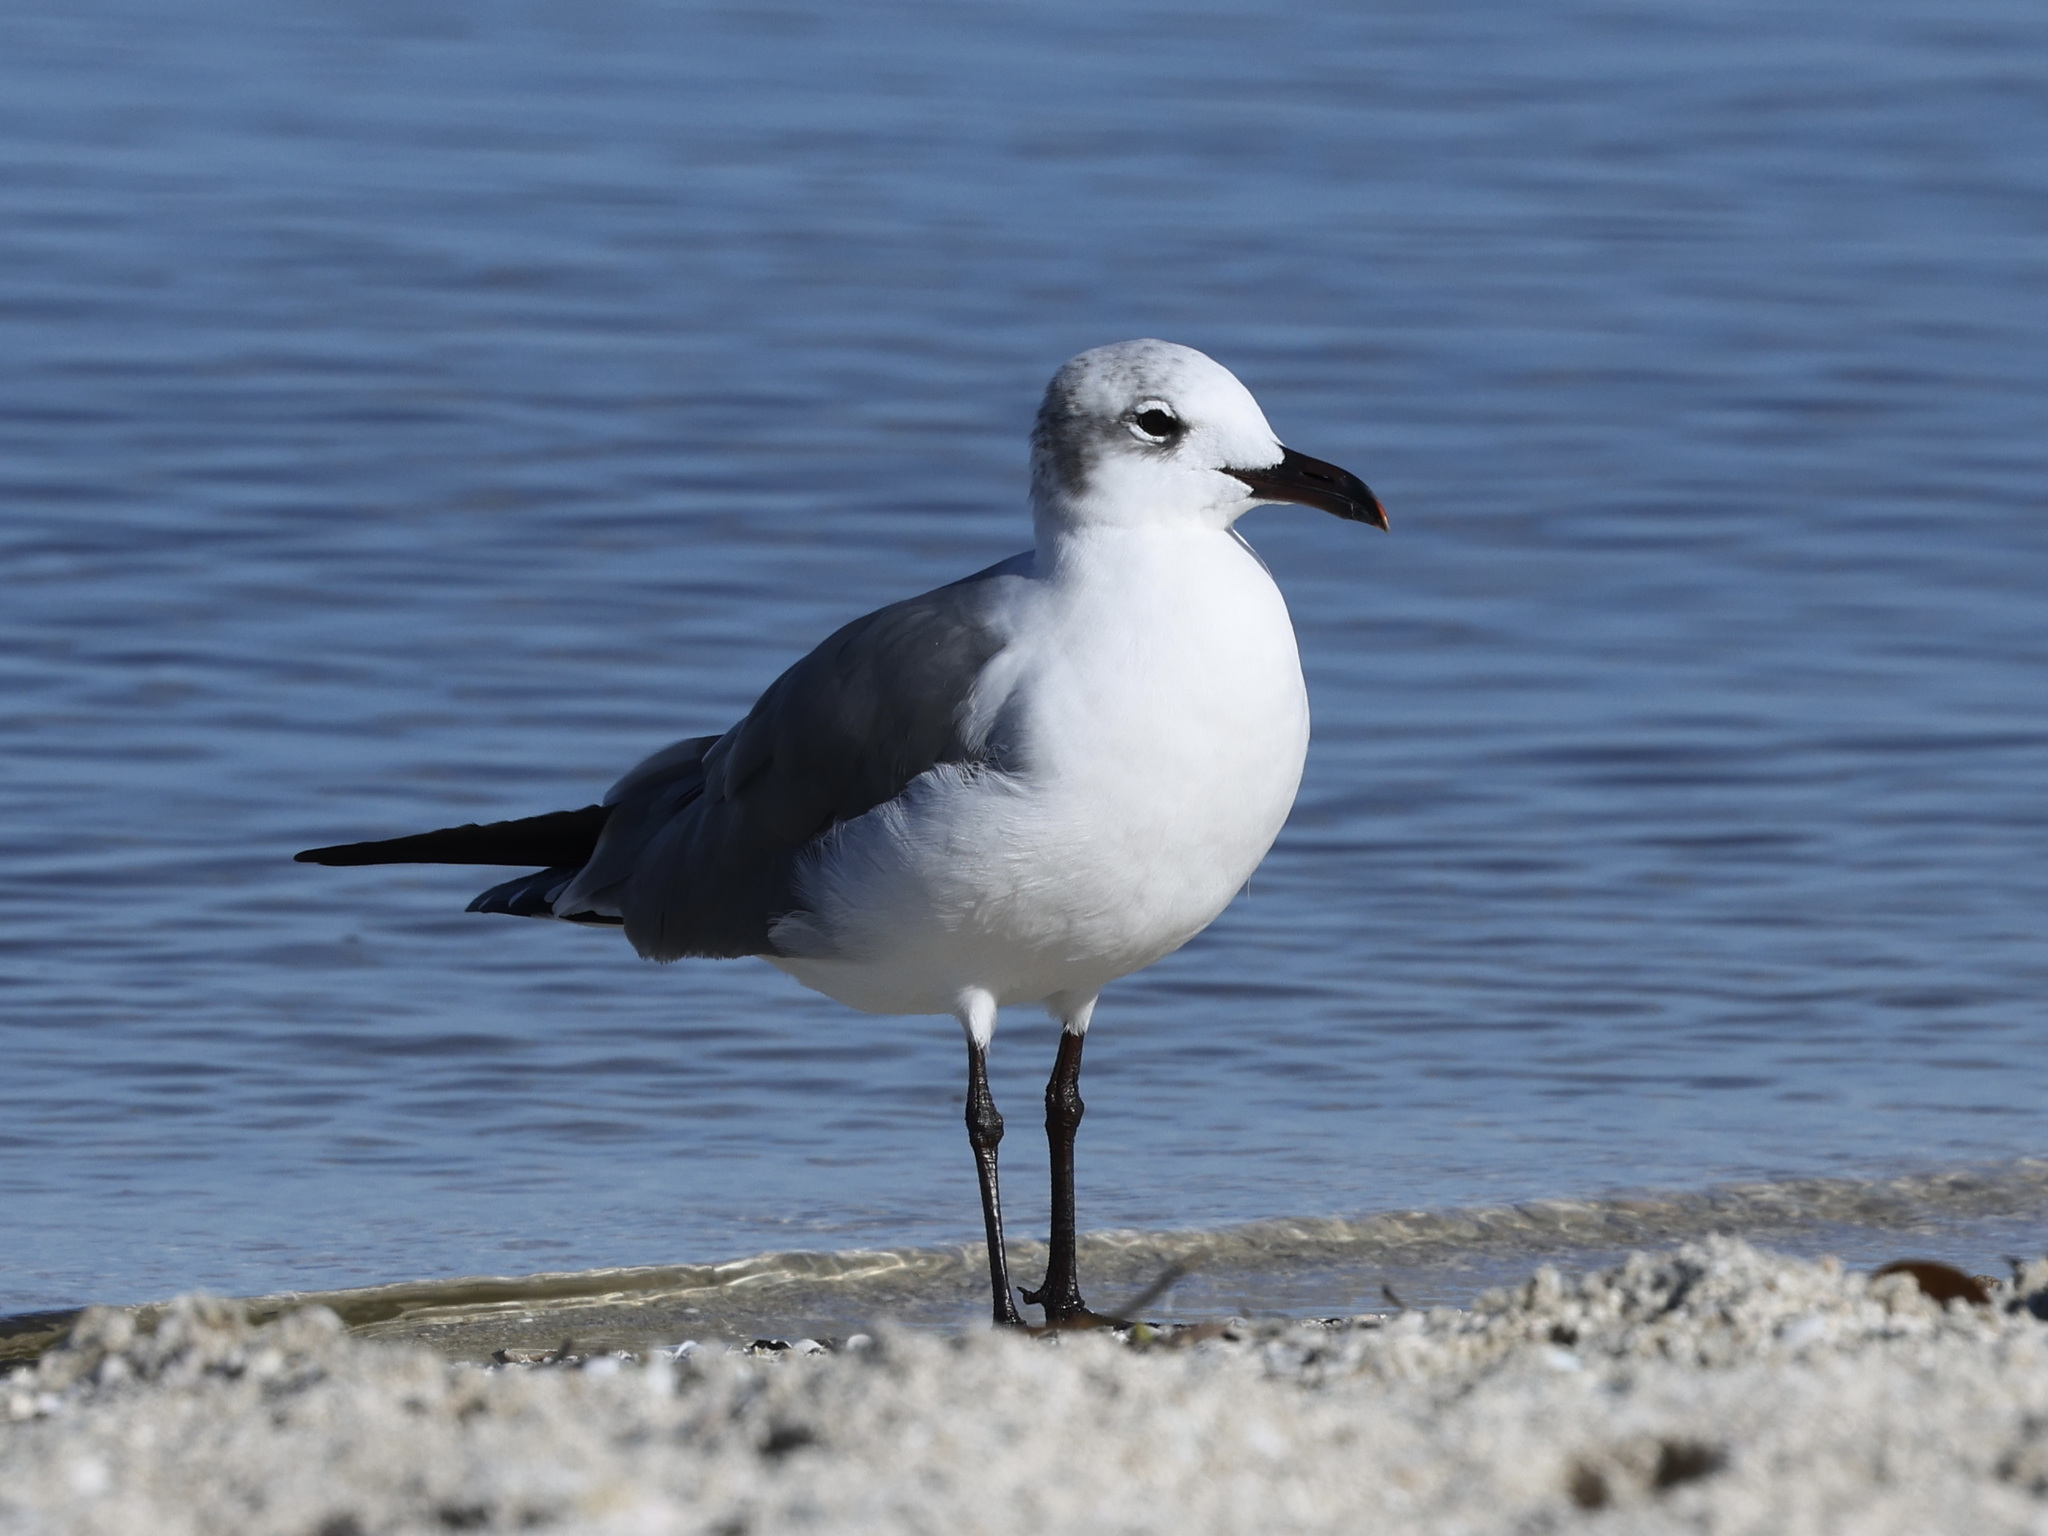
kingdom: Animalia
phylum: Chordata
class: Aves
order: Charadriiformes
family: Laridae
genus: Leucophaeus
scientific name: Leucophaeus atricilla
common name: Laughing gull
